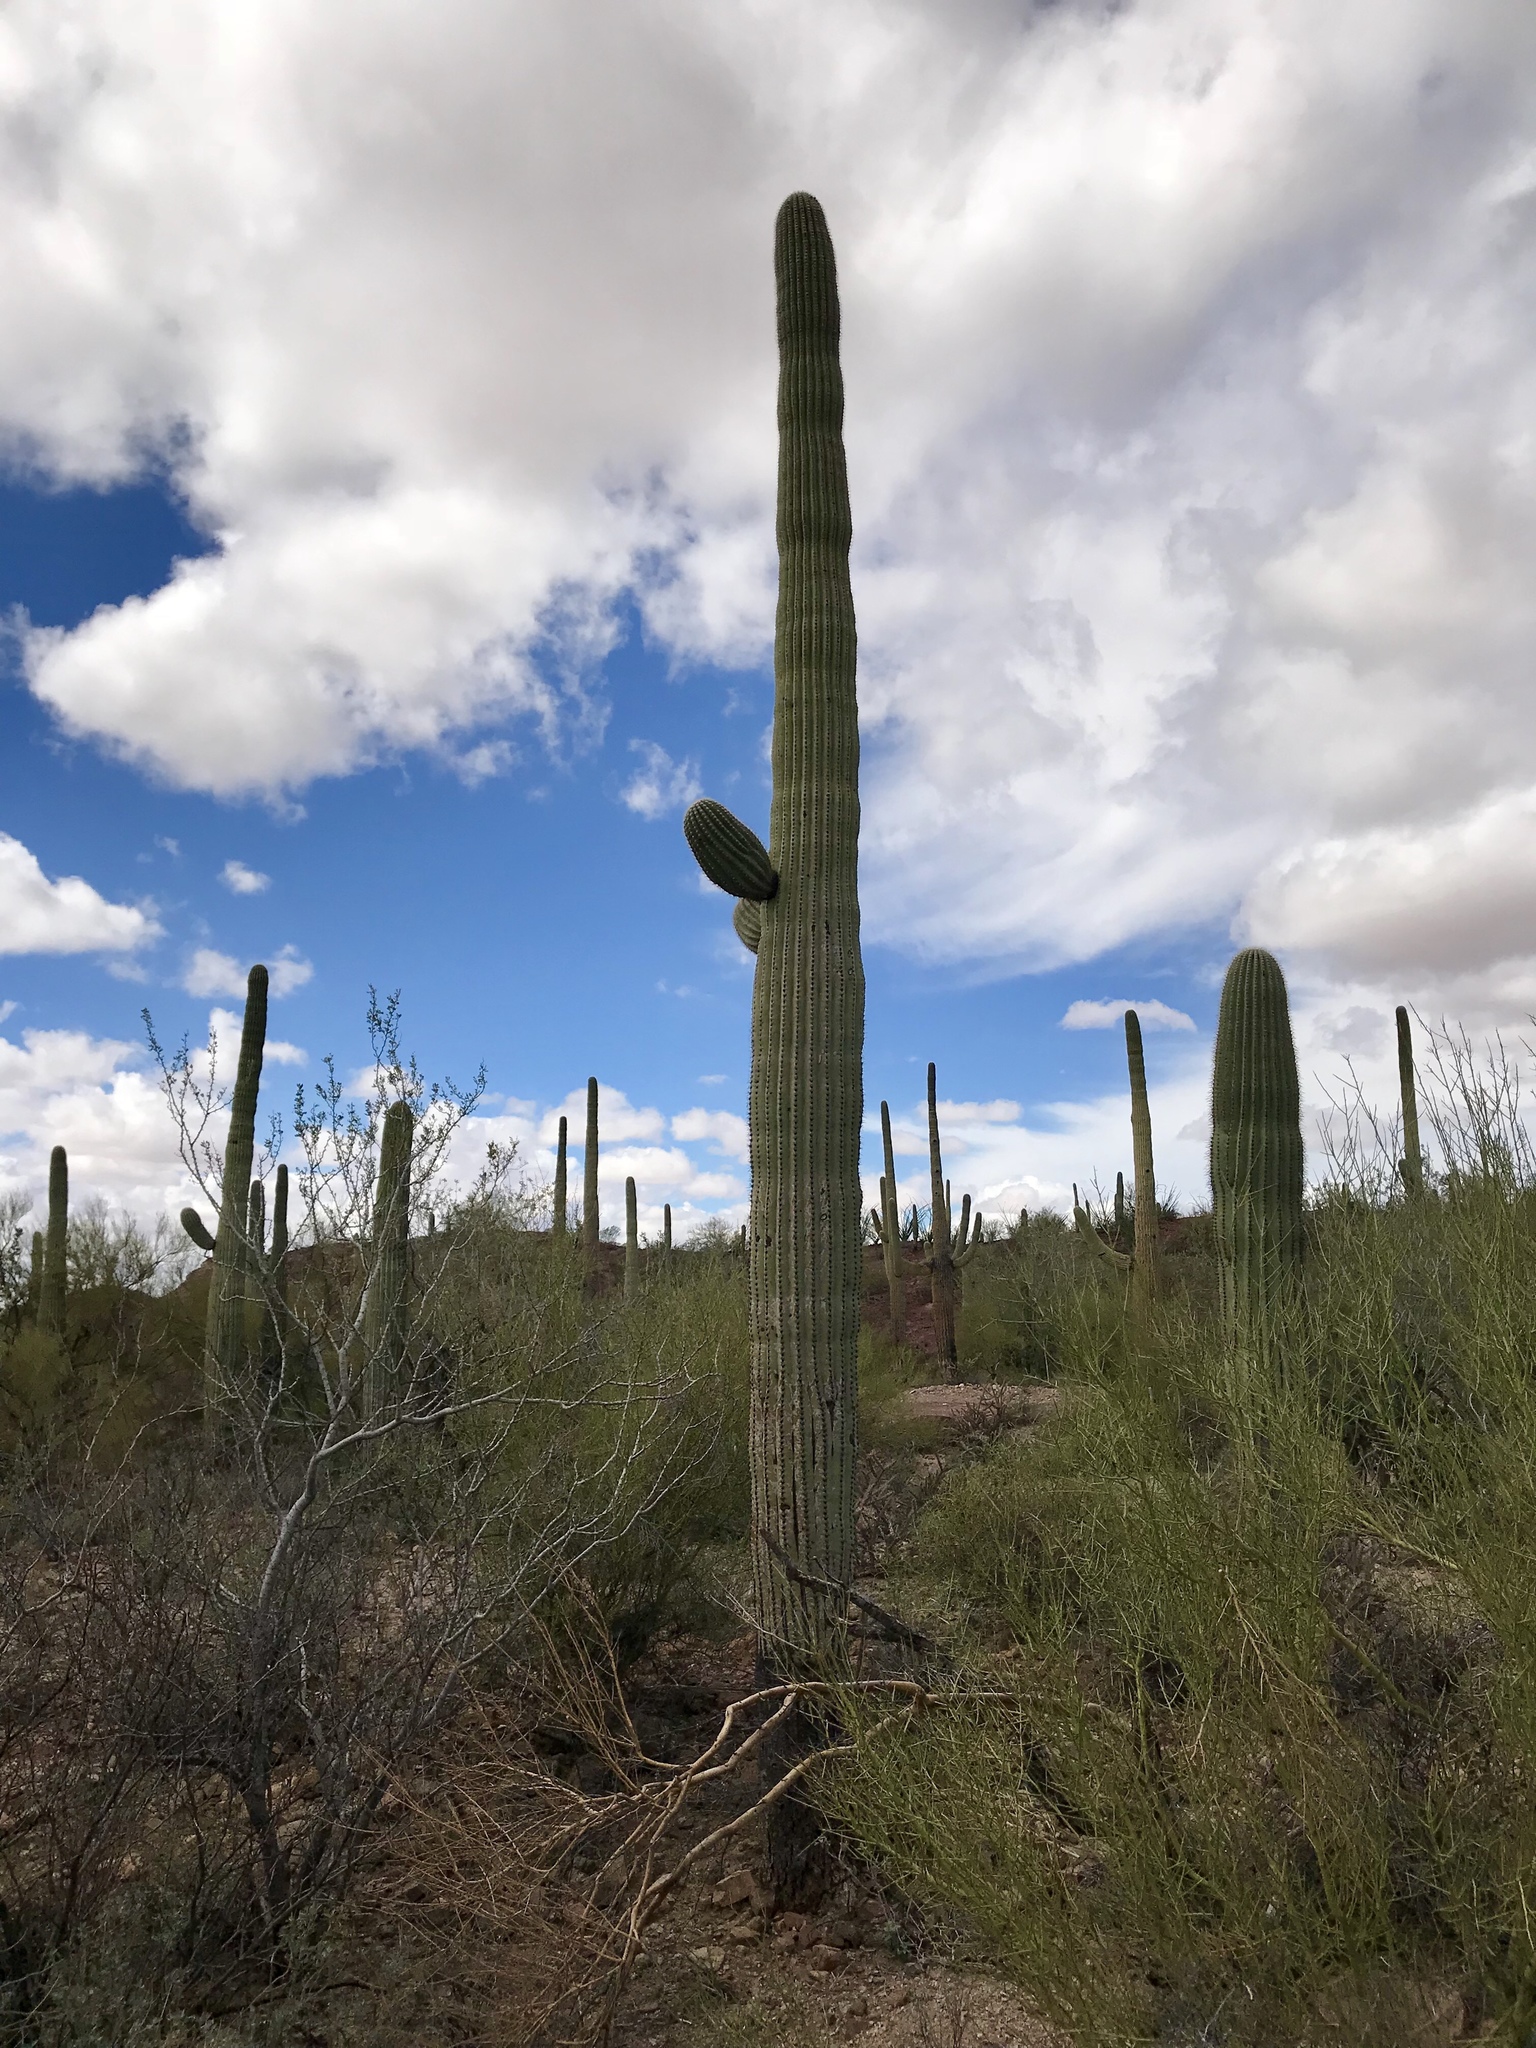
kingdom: Plantae
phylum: Tracheophyta
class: Magnoliopsida
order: Caryophyllales
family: Cactaceae
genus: Carnegiea
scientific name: Carnegiea gigantea
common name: Saguaro
